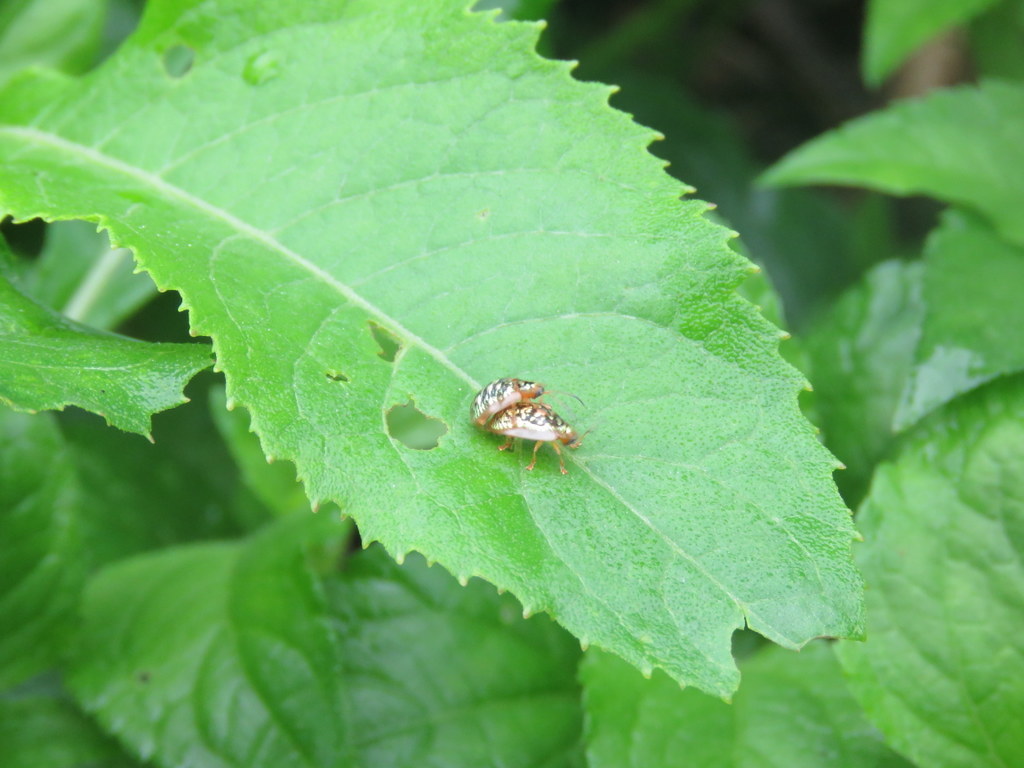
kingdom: Animalia
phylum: Arthropoda
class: Insecta
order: Coleoptera
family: Chrysomelidae
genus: Cteisella
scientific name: Cteisella confusa
